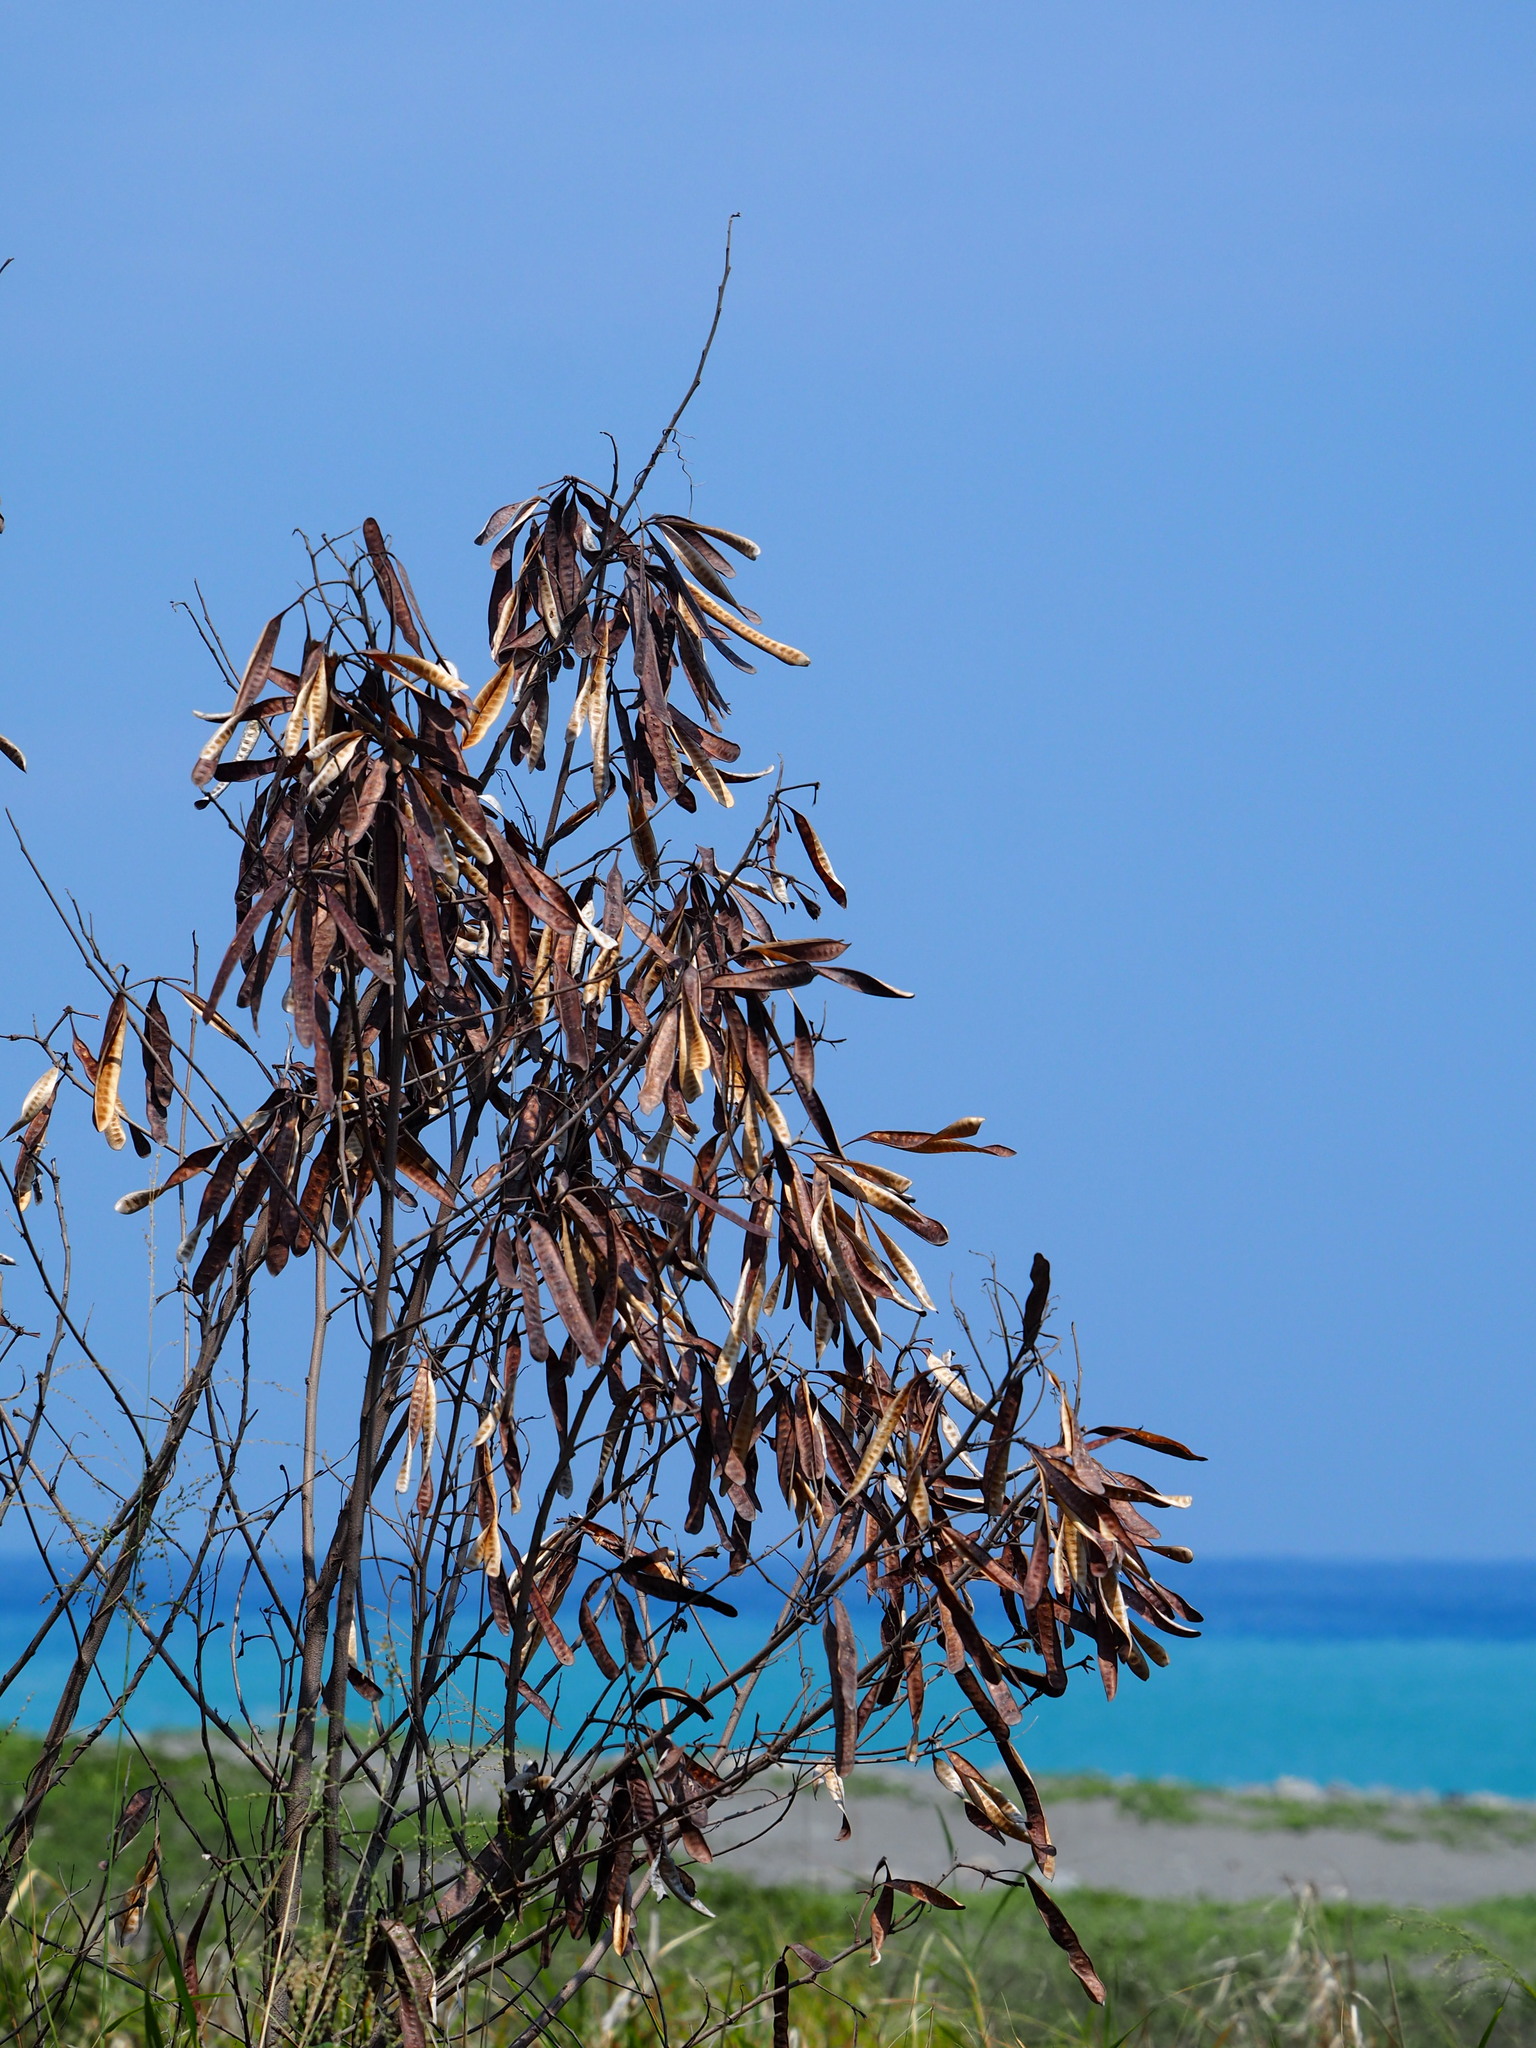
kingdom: Plantae
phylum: Tracheophyta
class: Magnoliopsida
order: Fabales
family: Fabaceae
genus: Leucaena
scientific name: Leucaena leucocephala
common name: White leadtree
